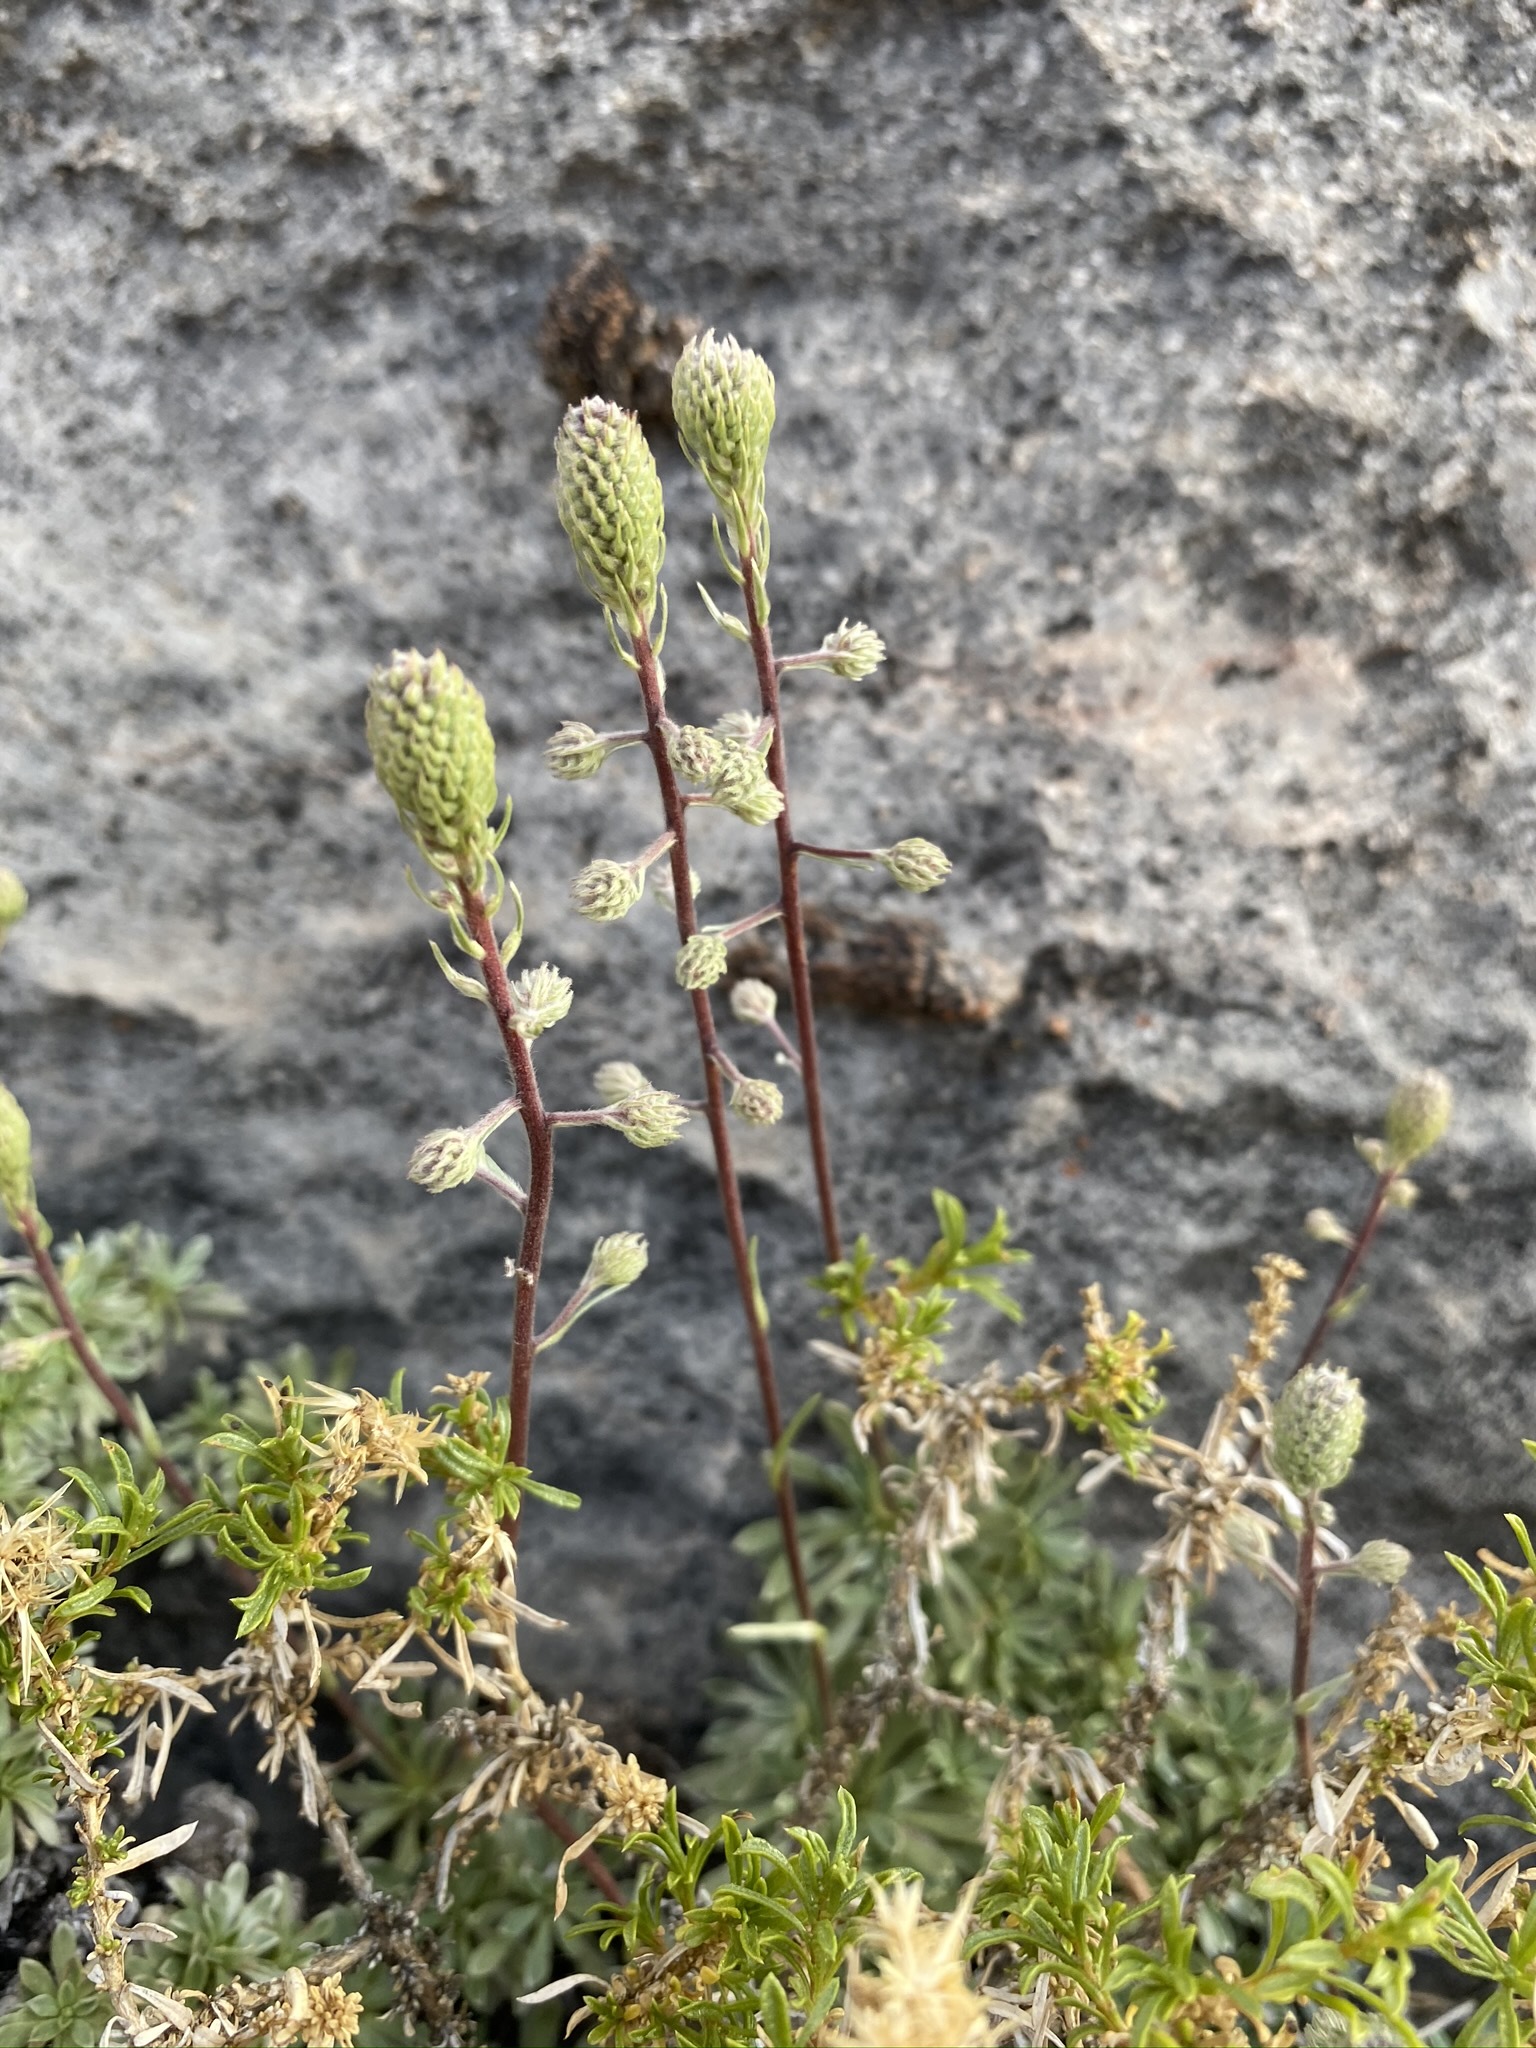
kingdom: Plantae
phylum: Tracheophyta
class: Magnoliopsida
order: Rosales
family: Rosaceae
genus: Petrophytum
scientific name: Petrophytum caespitosum
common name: Mat rockspirea
